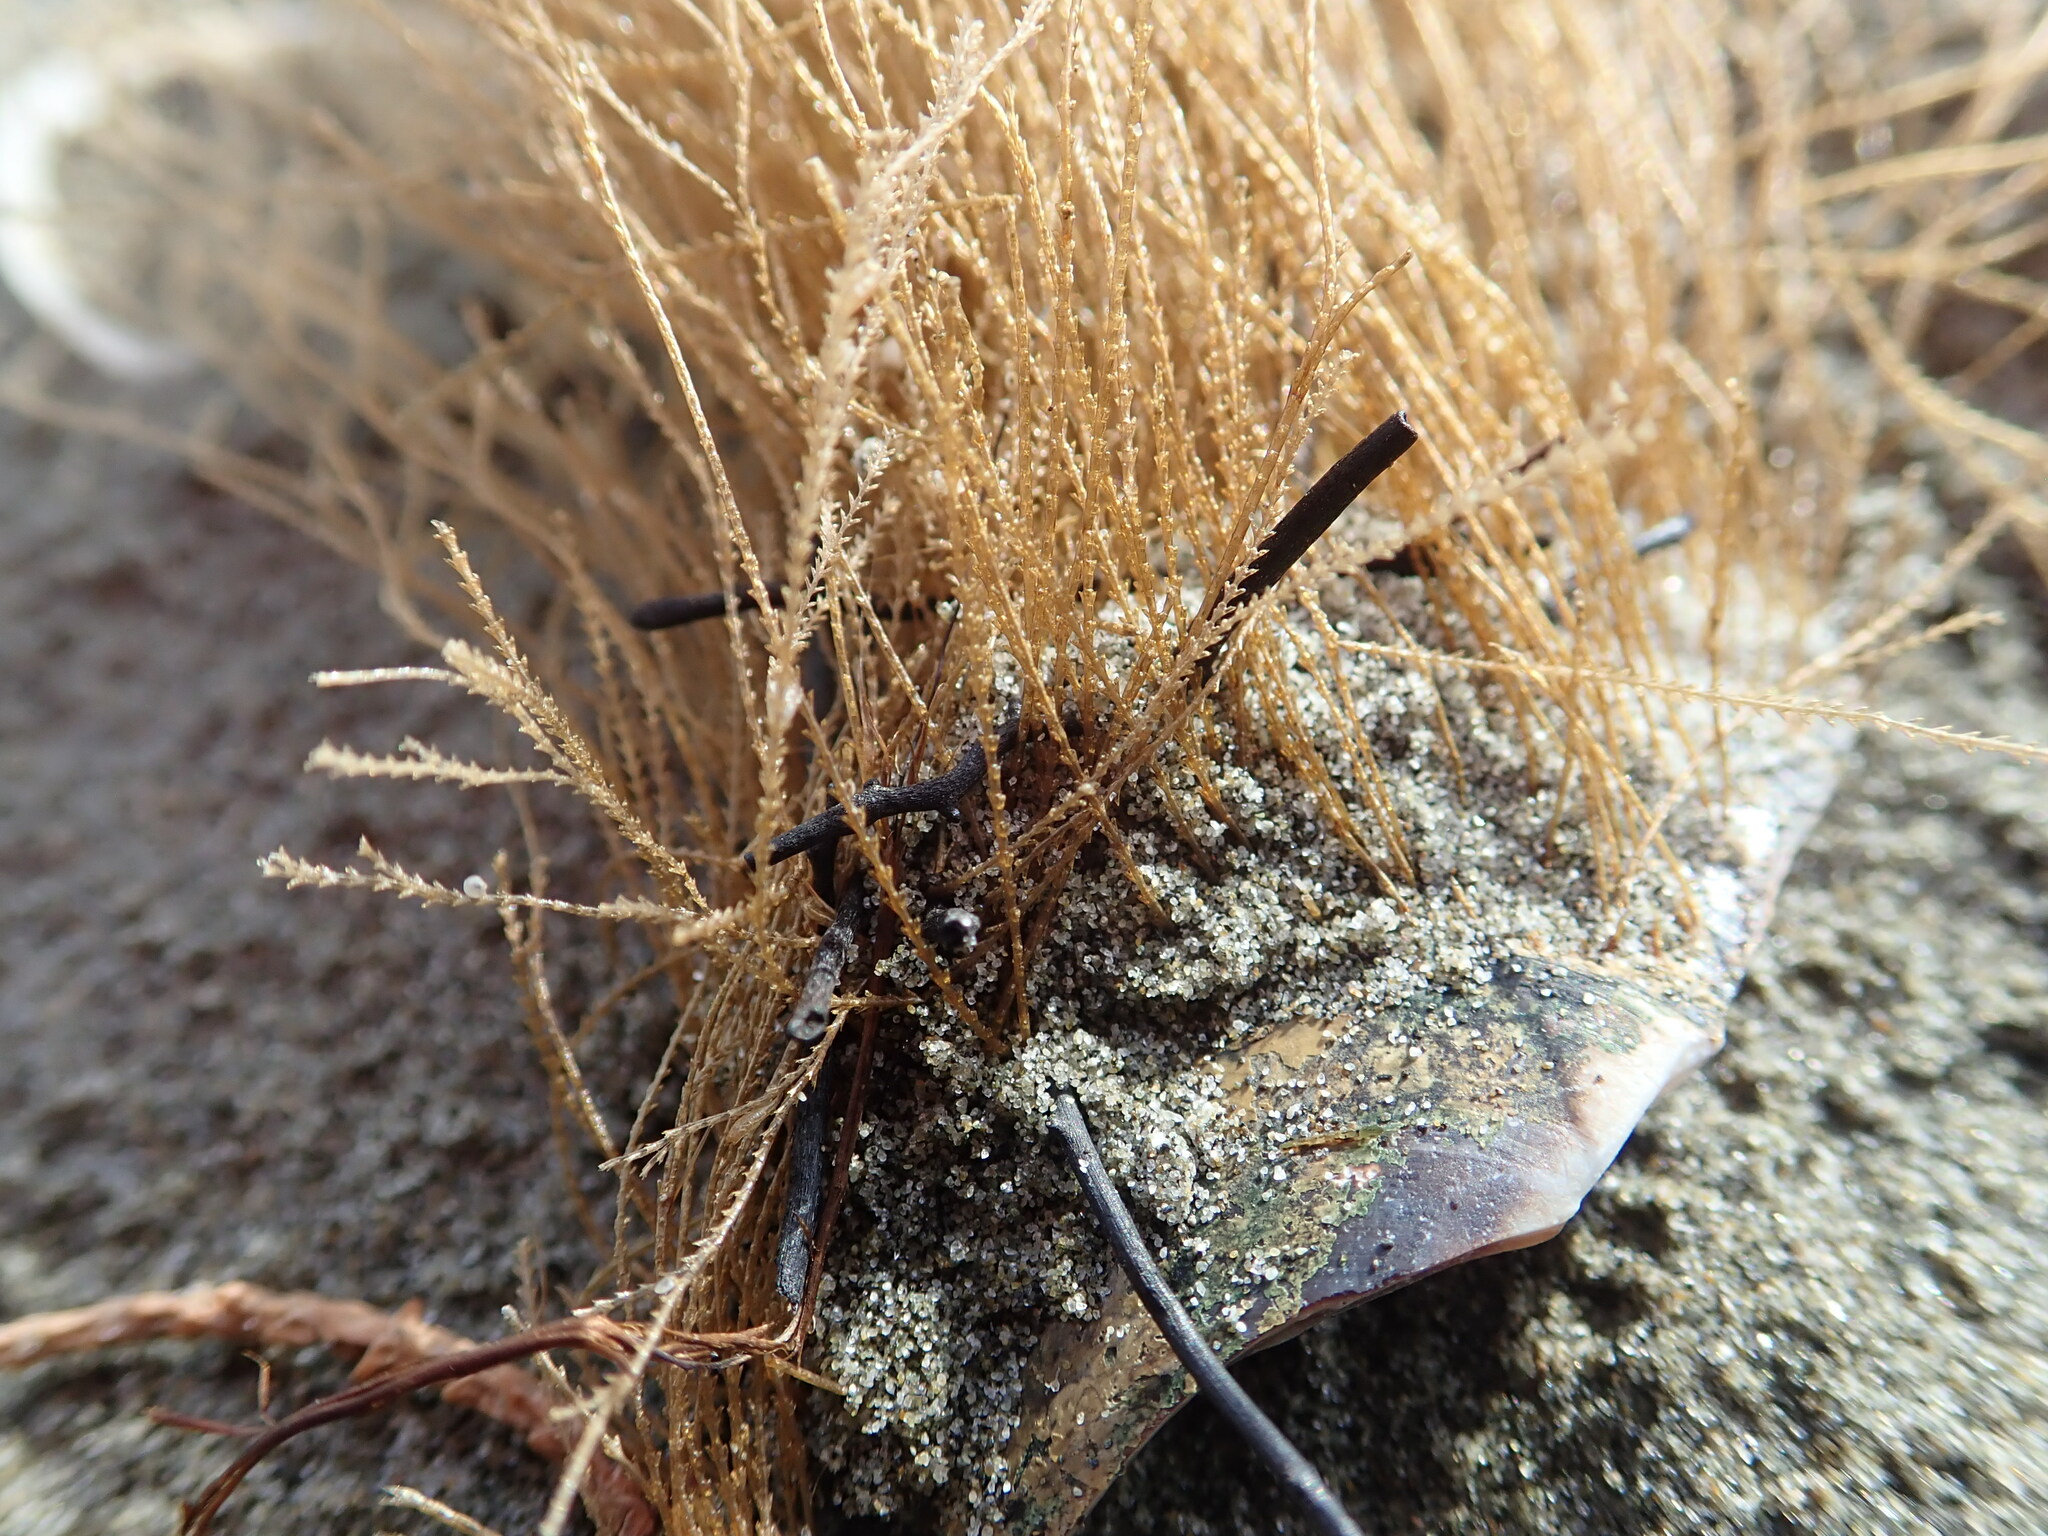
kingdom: Animalia
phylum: Cnidaria
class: Hydrozoa
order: Leptothecata
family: Sertulariidae
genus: Amphisbetia
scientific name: Amphisbetia bispinosa
